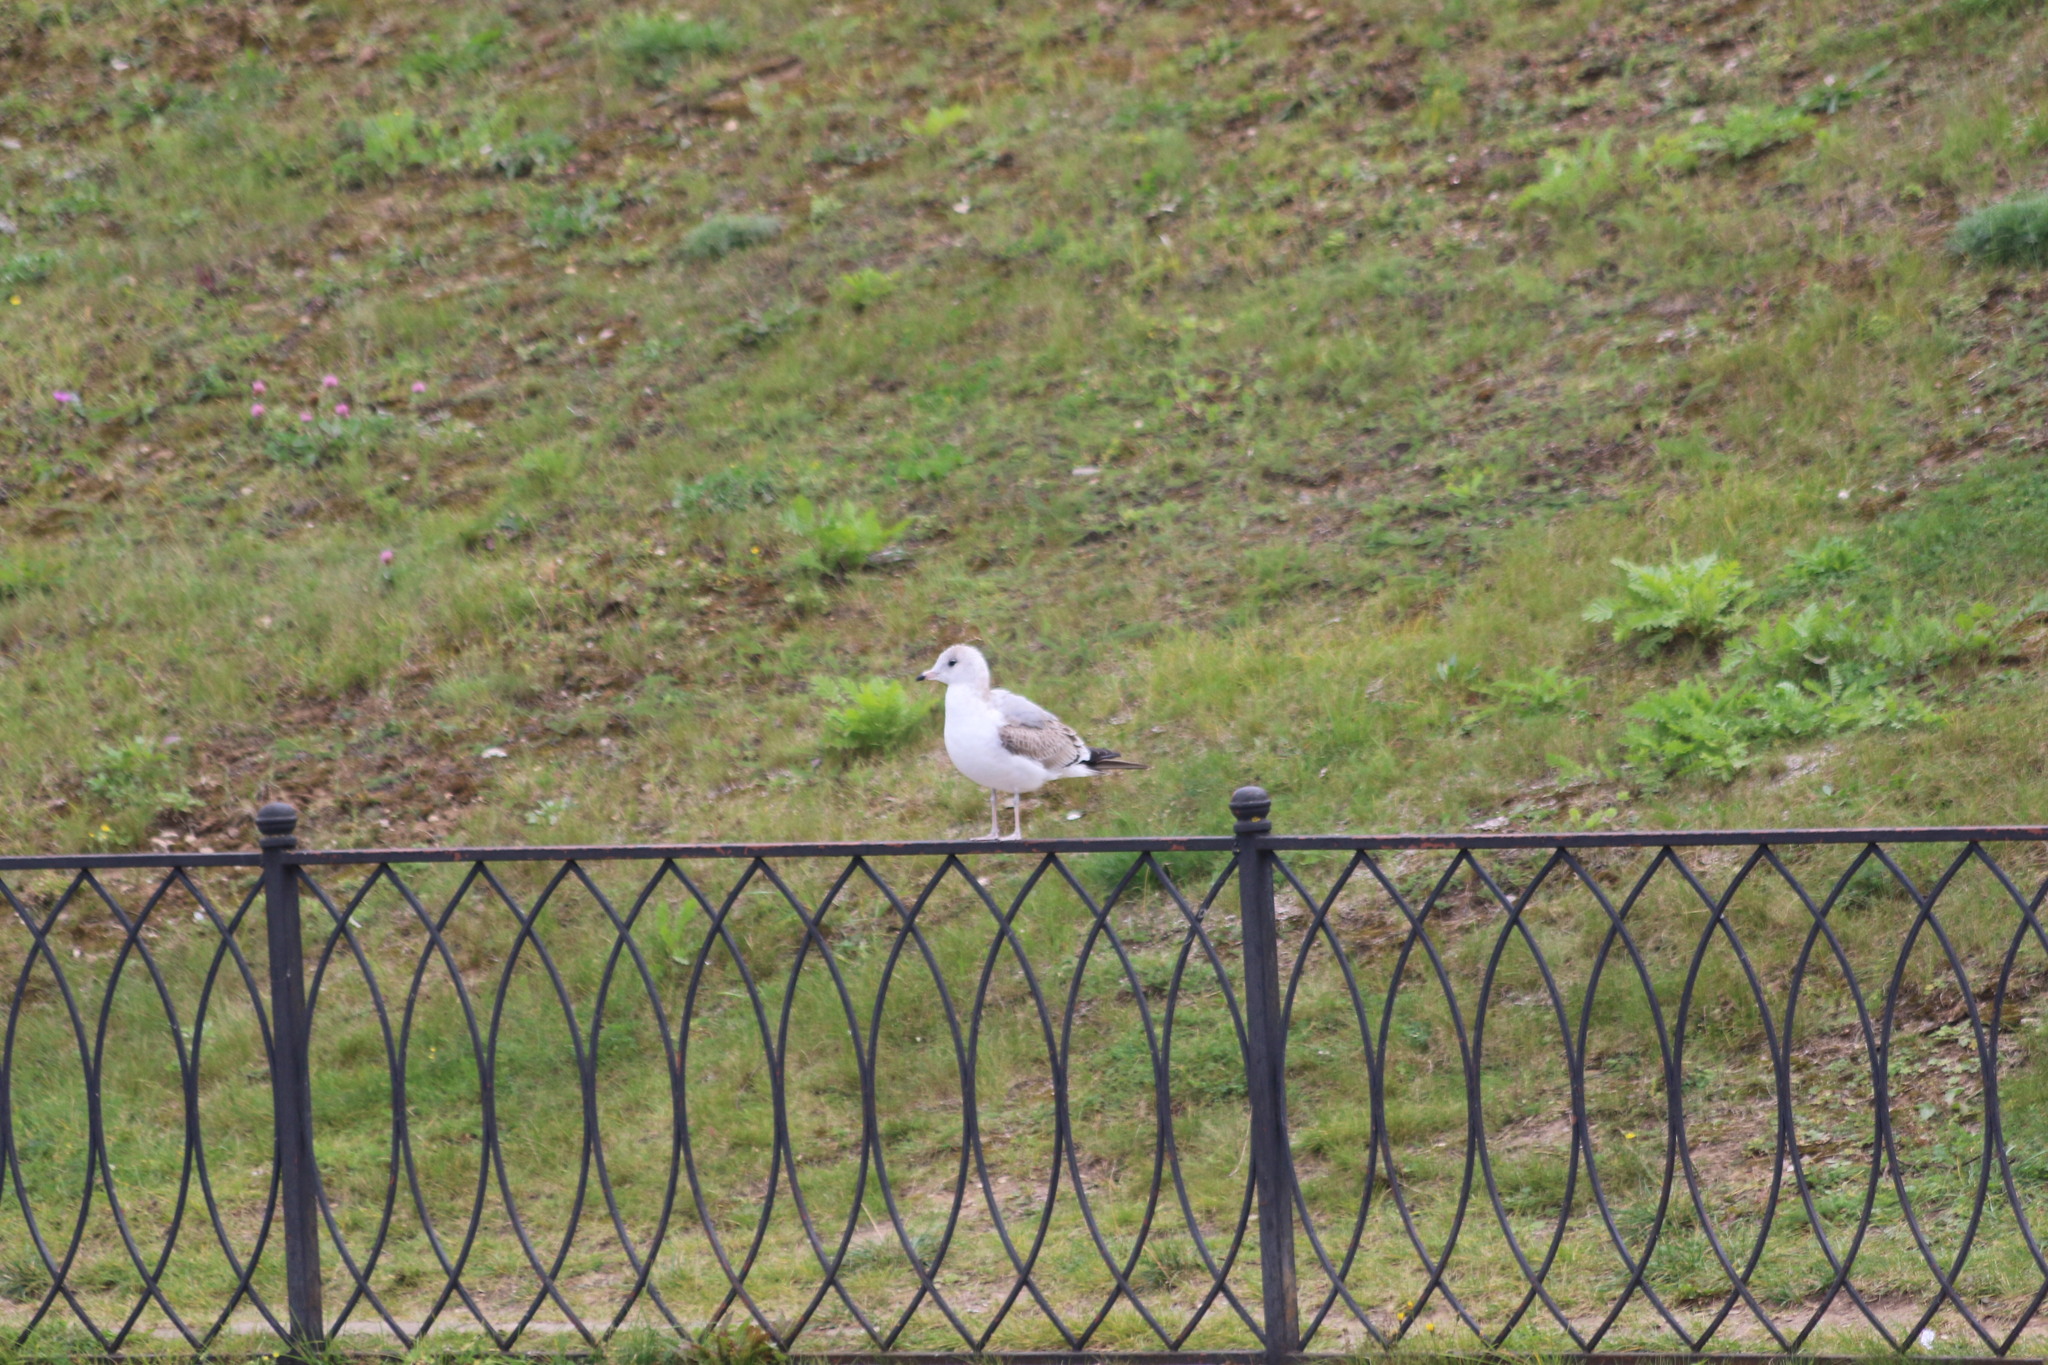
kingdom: Animalia
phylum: Chordata
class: Aves
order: Charadriiformes
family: Laridae
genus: Larus
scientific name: Larus canus
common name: Mew gull
